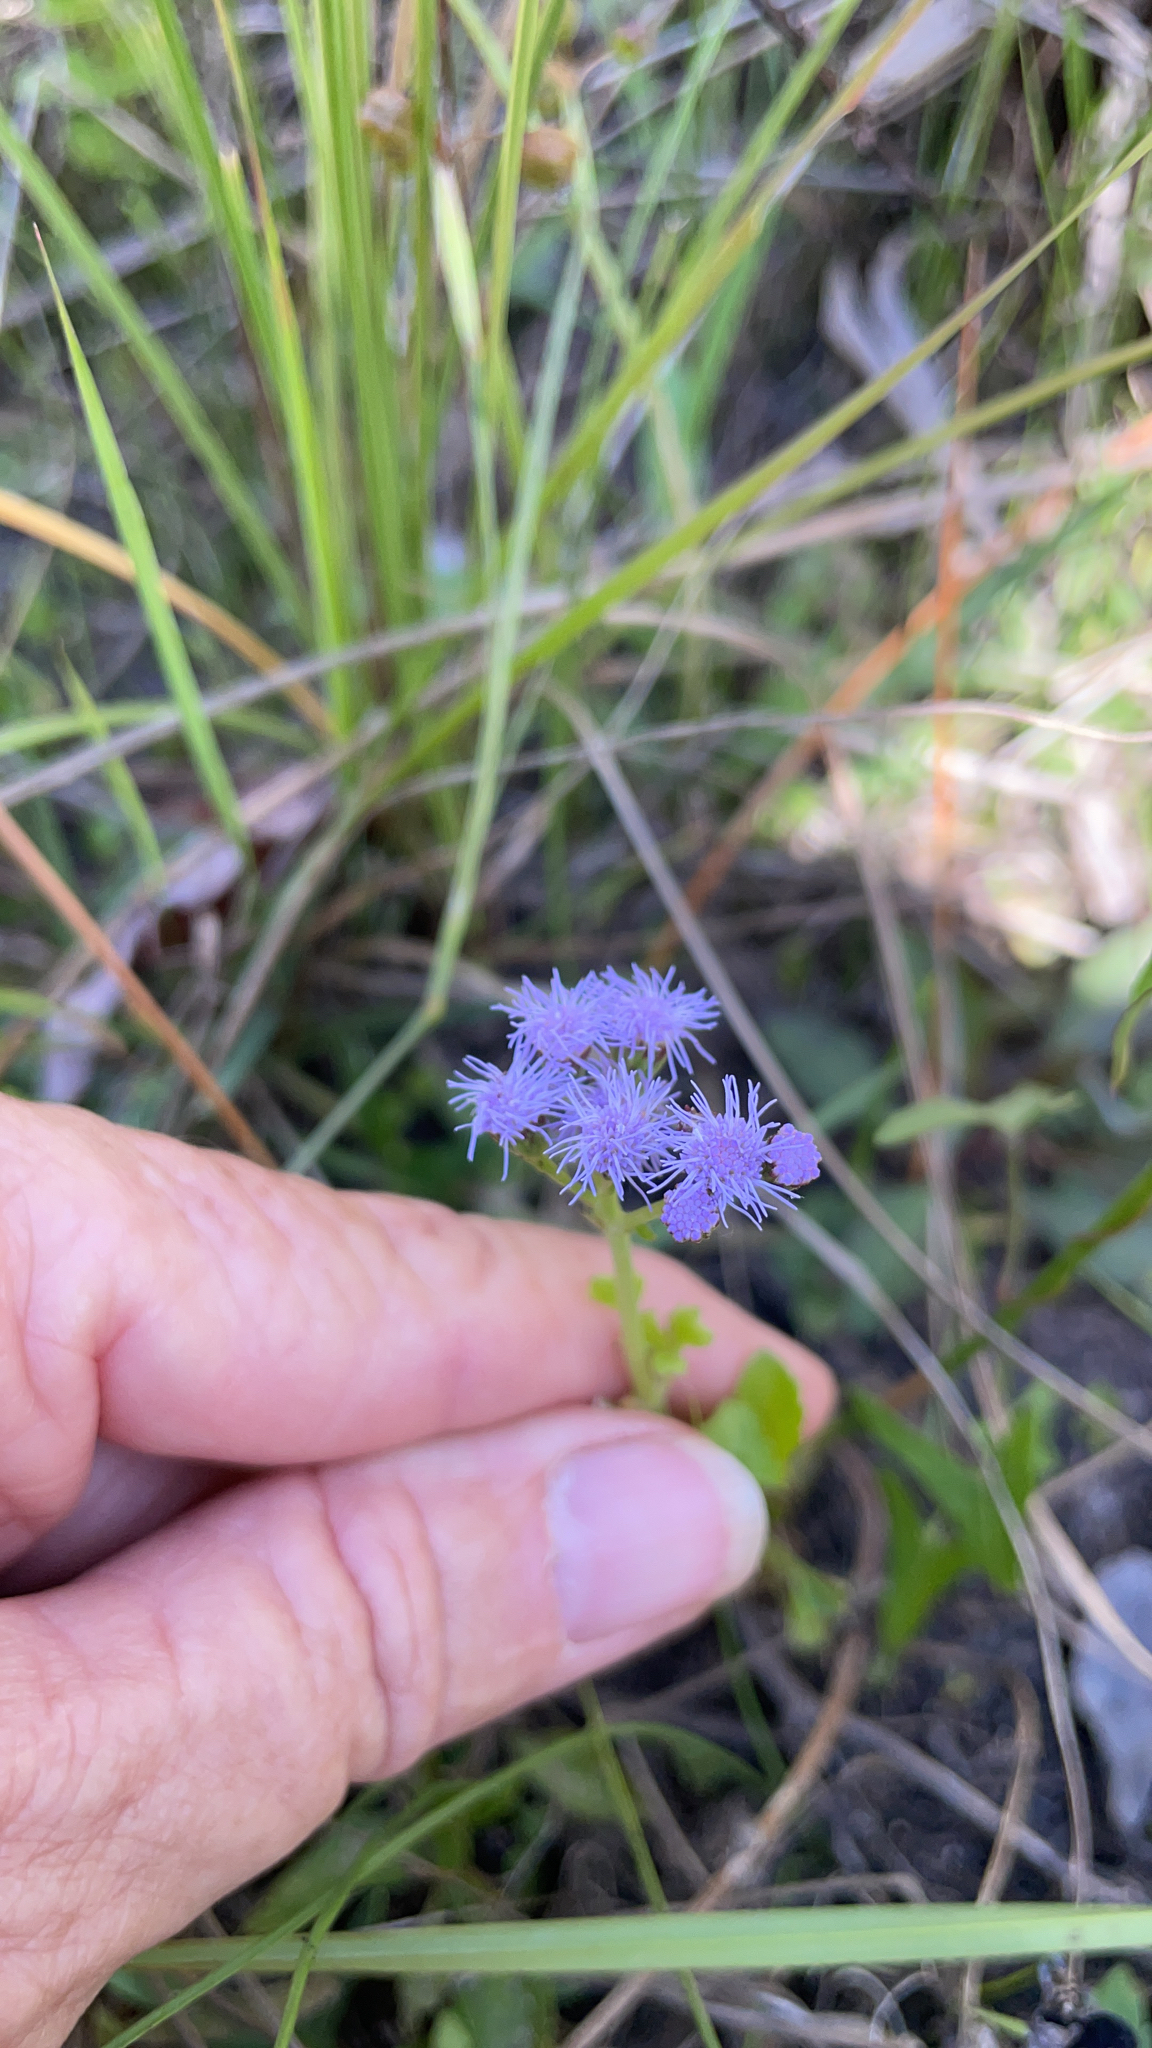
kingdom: Plantae
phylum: Tracheophyta
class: Magnoliopsida
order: Asterales
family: Asteraceae
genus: Conoclinium
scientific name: Conoclinium coelestinum
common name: Blue mistflower
